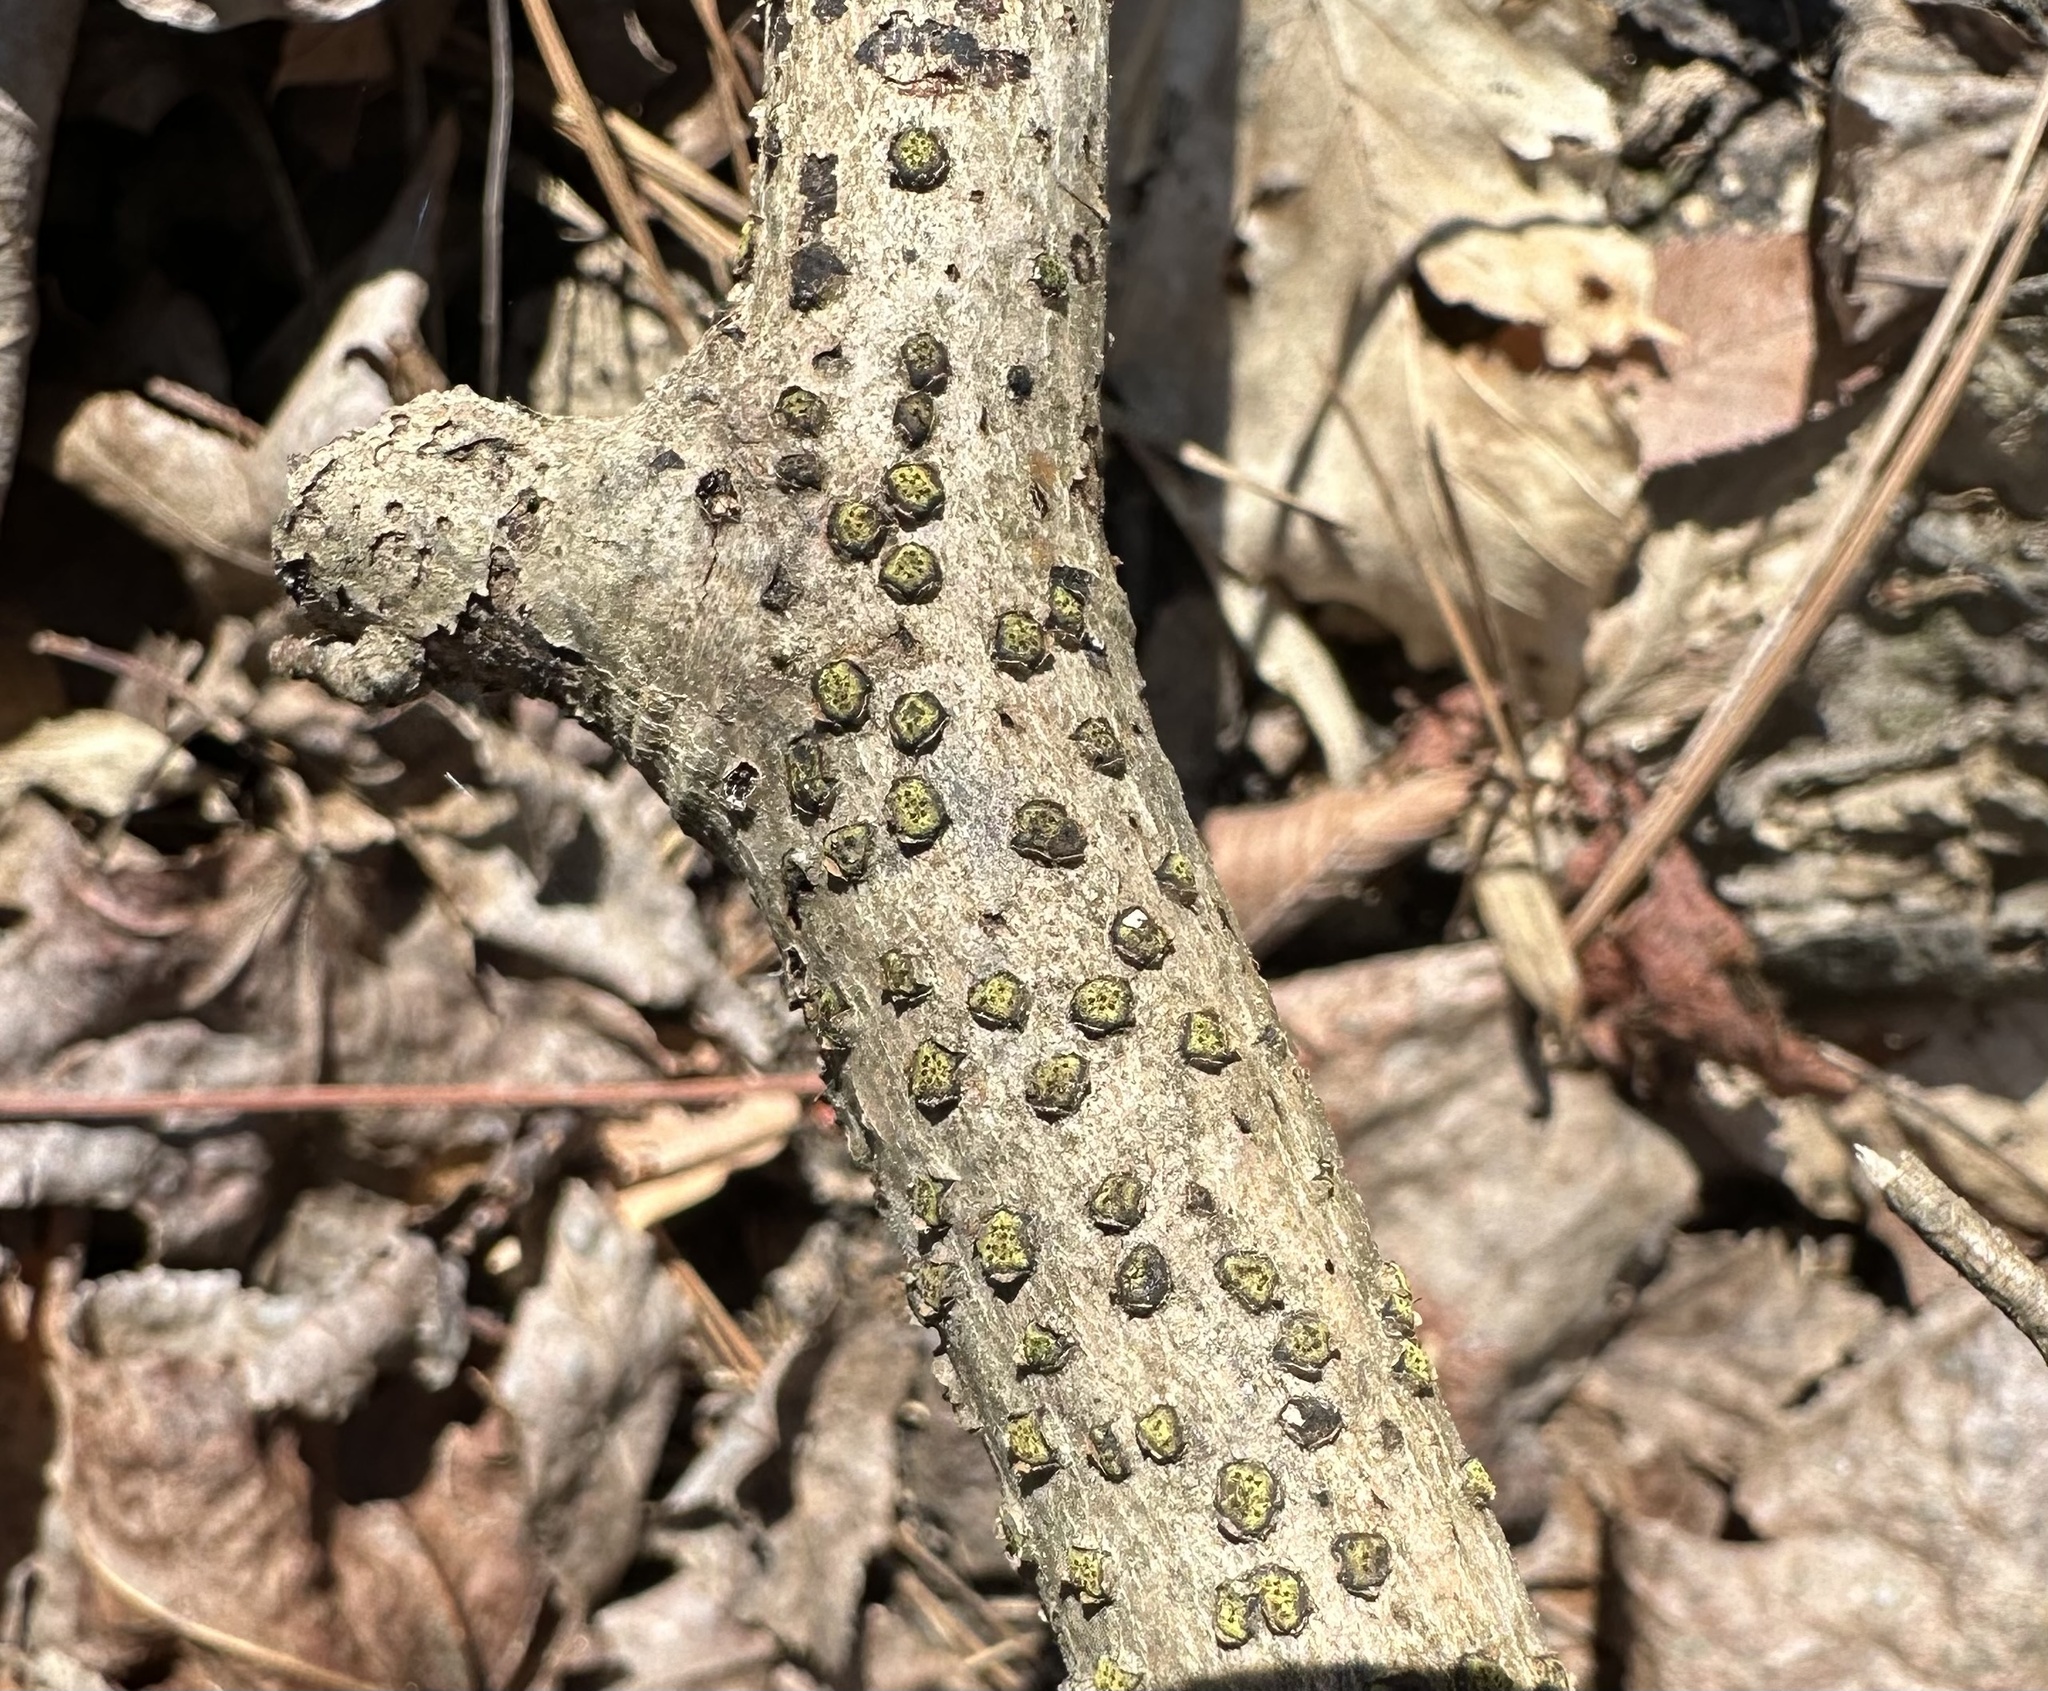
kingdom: Fungi
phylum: Ascomycota
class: Sordariomycetes
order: Xylariales
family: Diatrypaceae
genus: Diatrype
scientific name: Diatrype virescens
